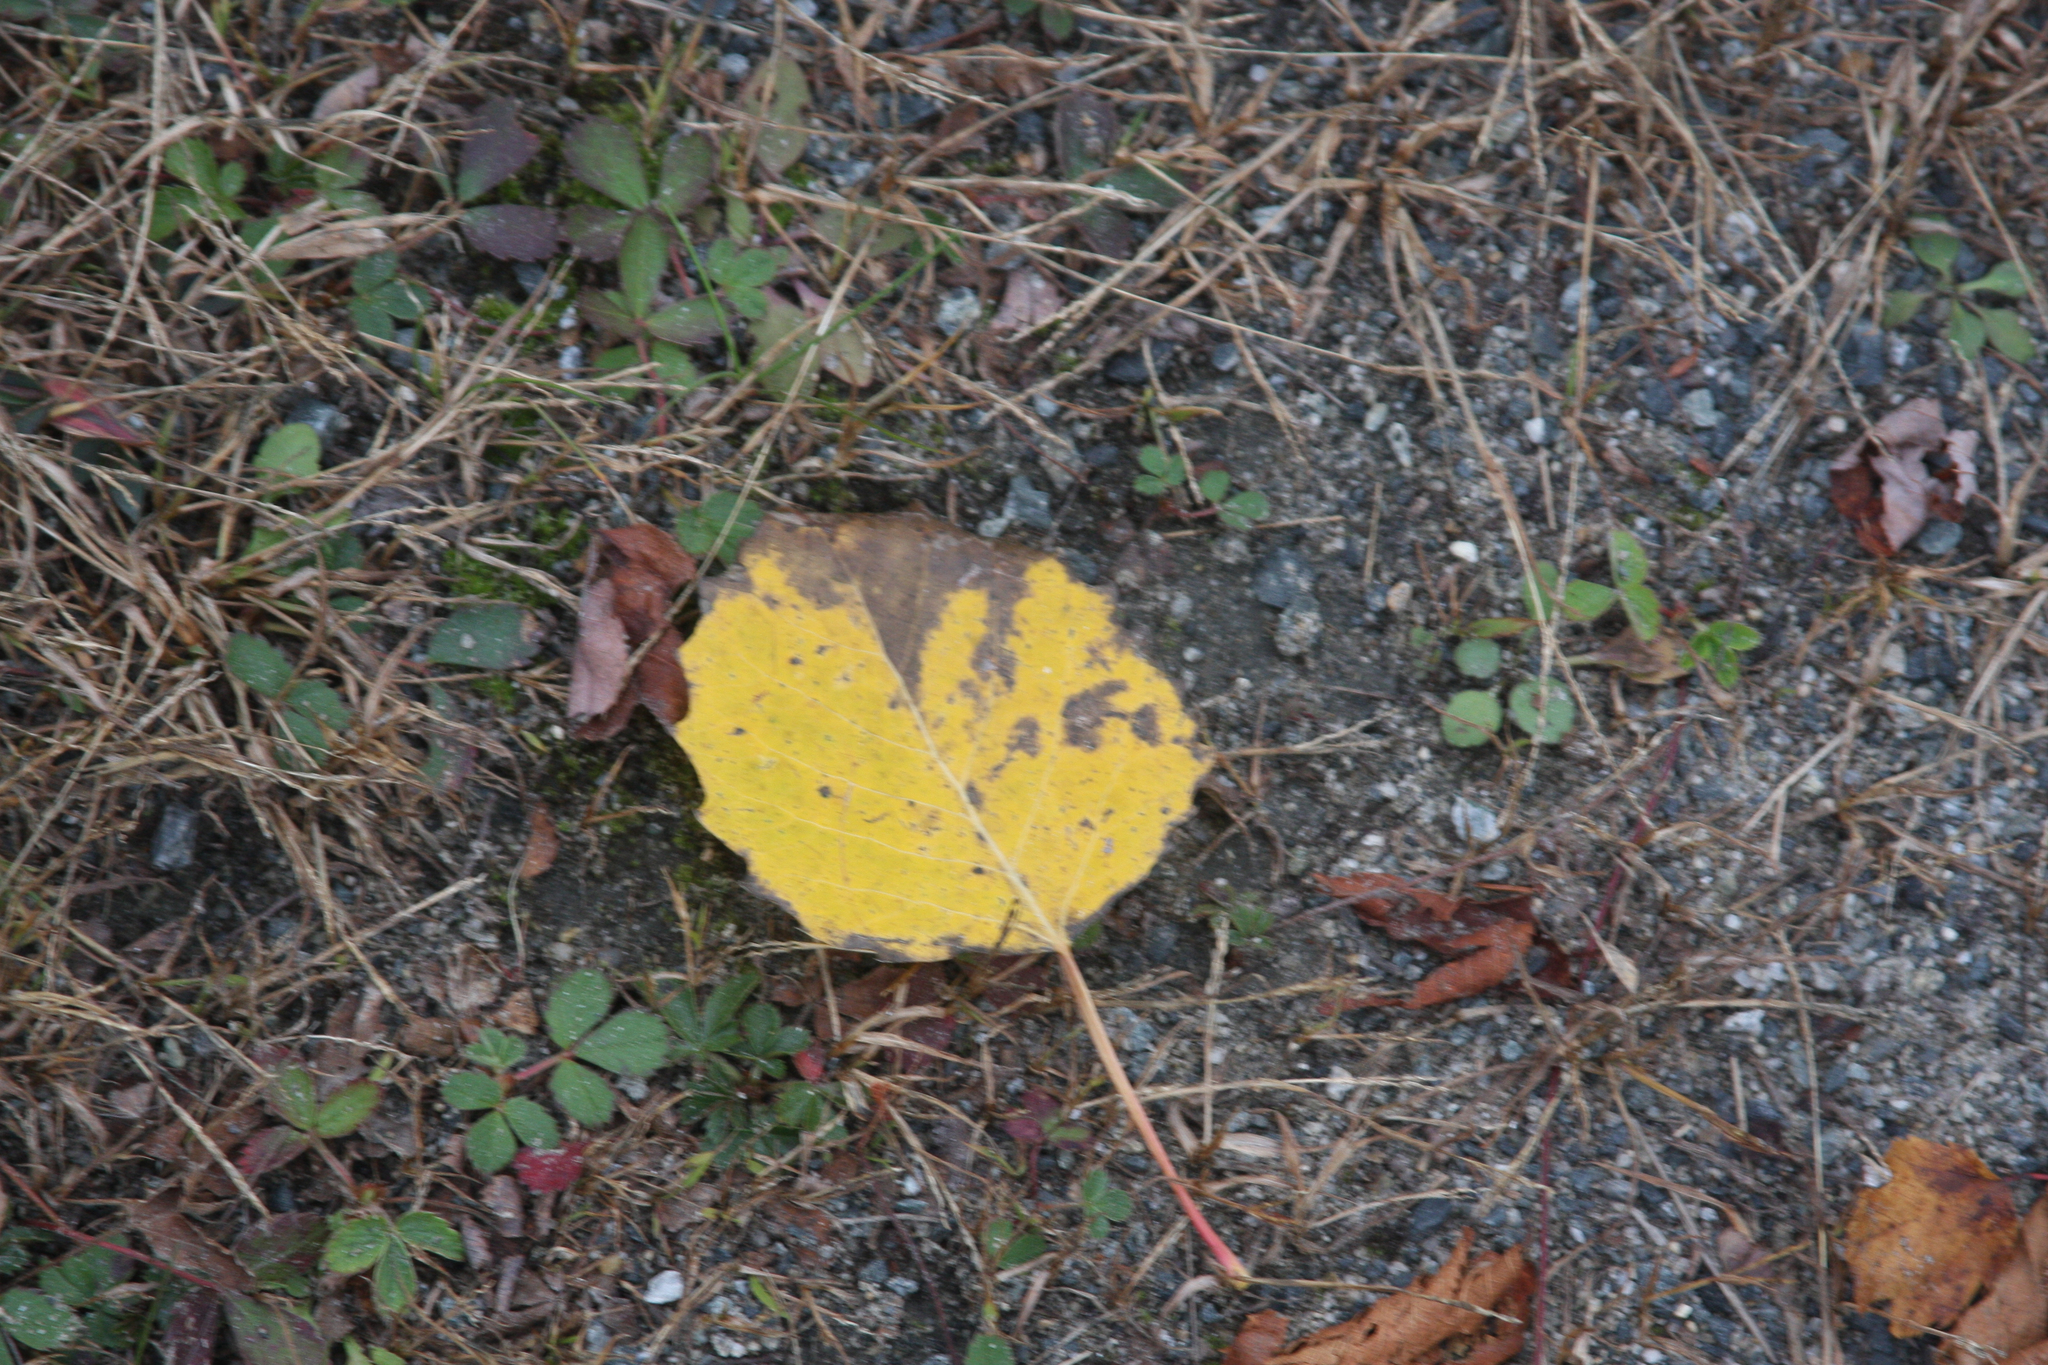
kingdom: Plantae
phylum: Tracheophyta
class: Magnoliopsida
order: Malpighiales
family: Salicaceae
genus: Populus
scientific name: Populus grandidentata
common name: Bigtooth aspen
